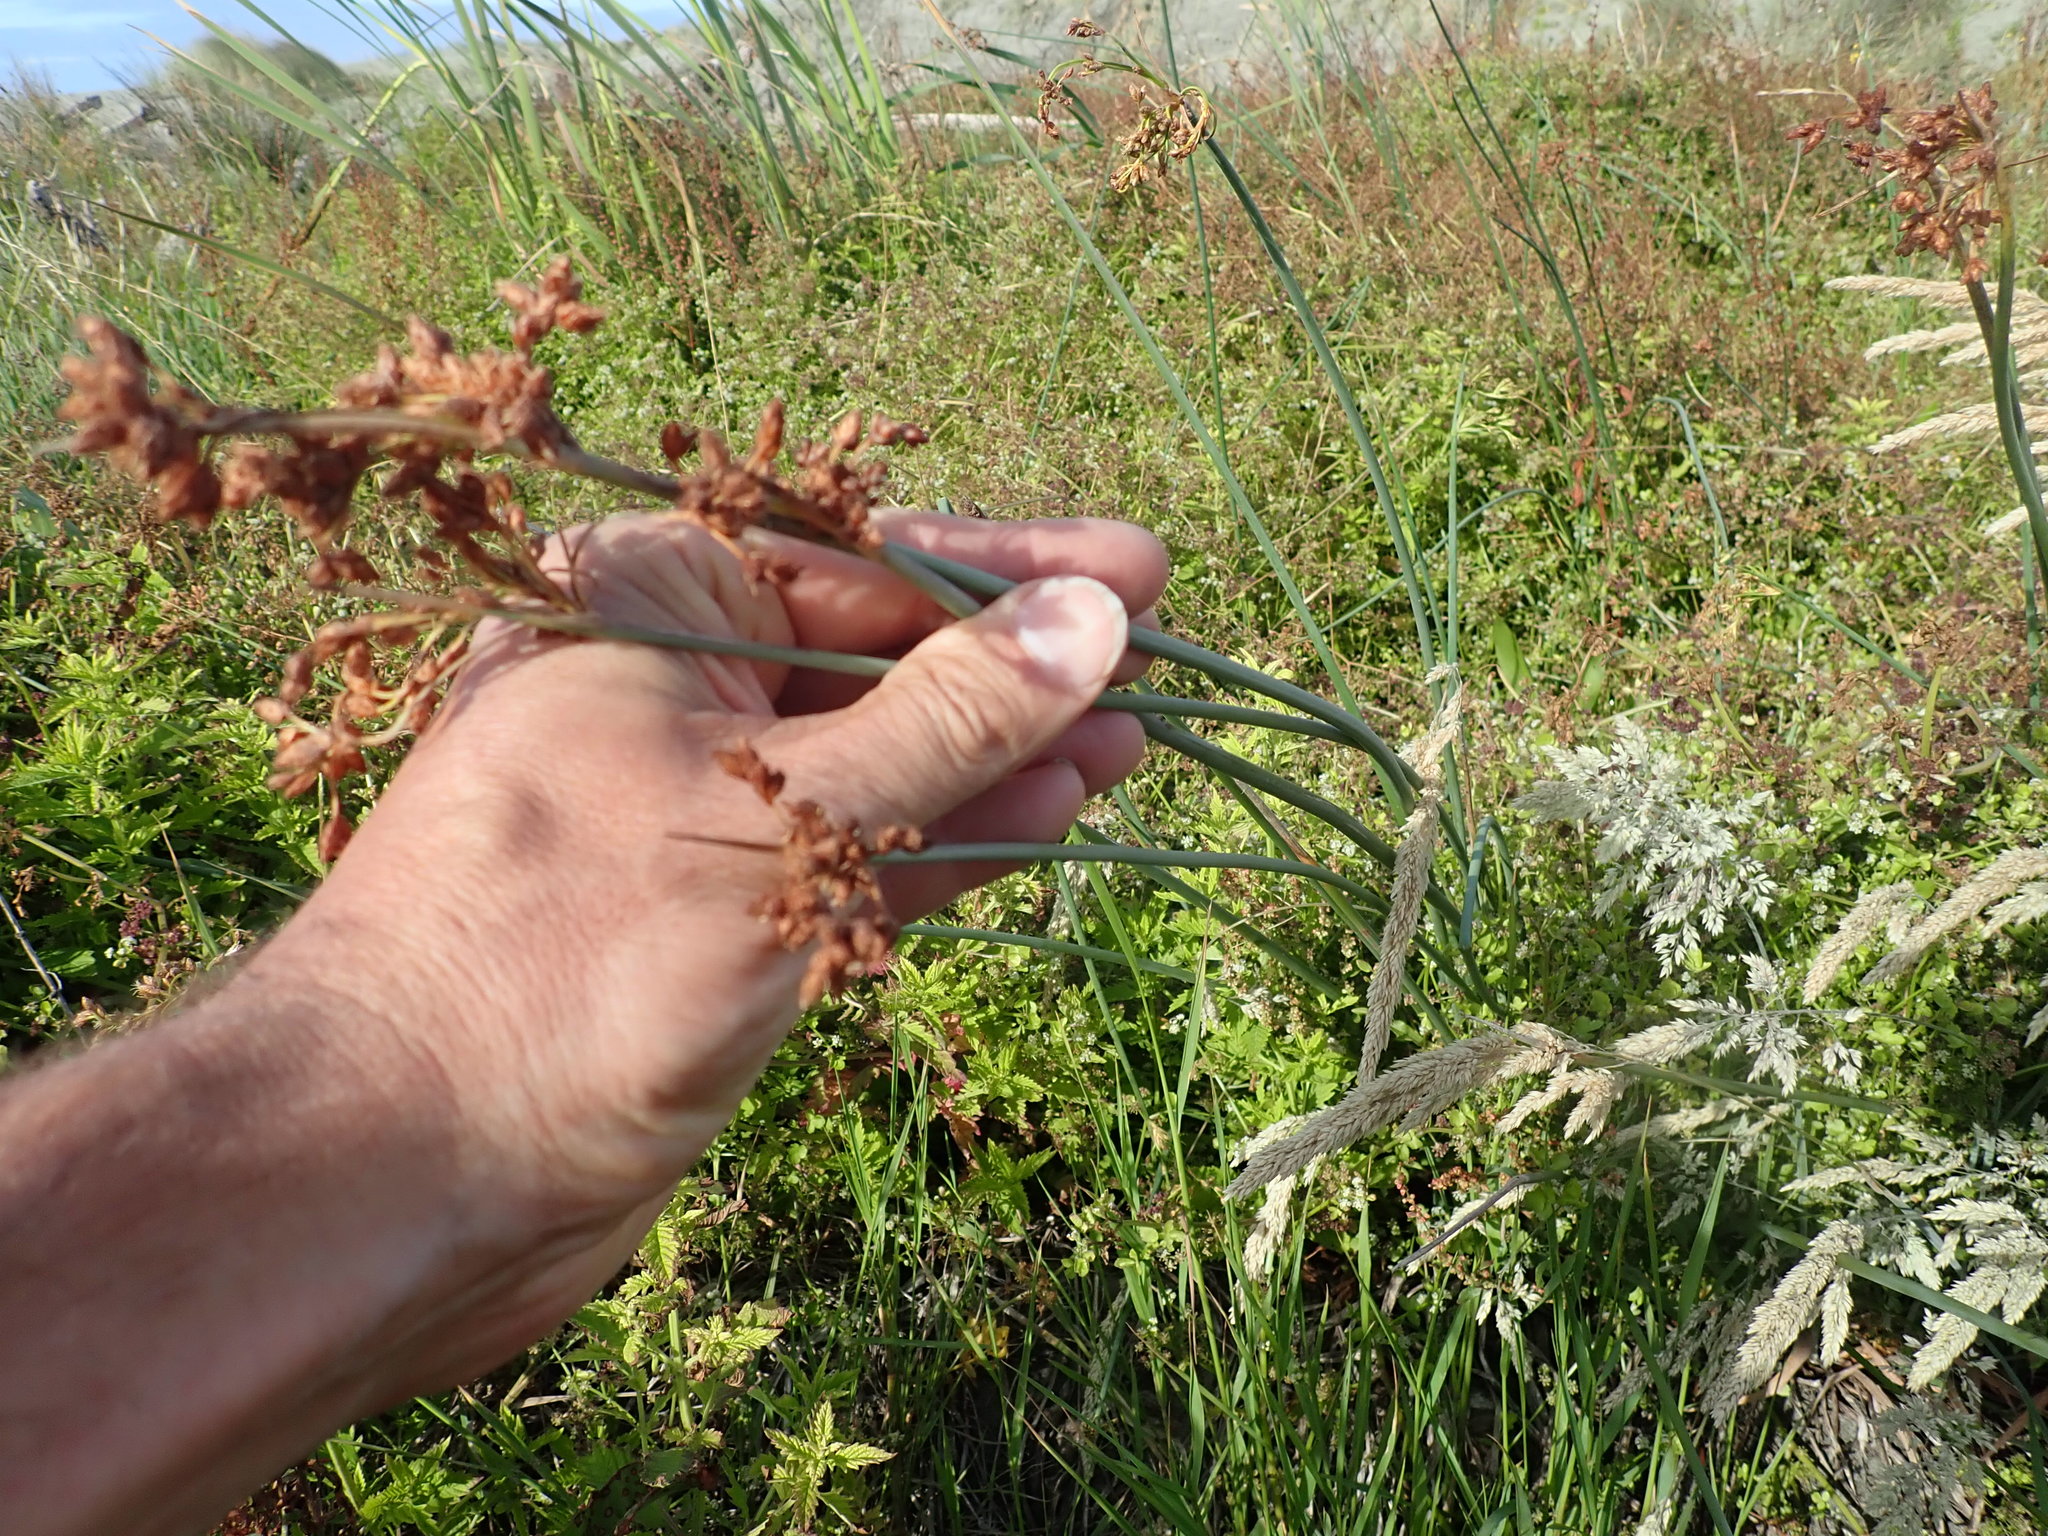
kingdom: Plantae
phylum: Tracheophyta
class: Liliopsida
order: Poales
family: Cyperaceae
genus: Schoenoplectus
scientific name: Schoenoplectus tabernaemontani
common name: Grey club-rush
